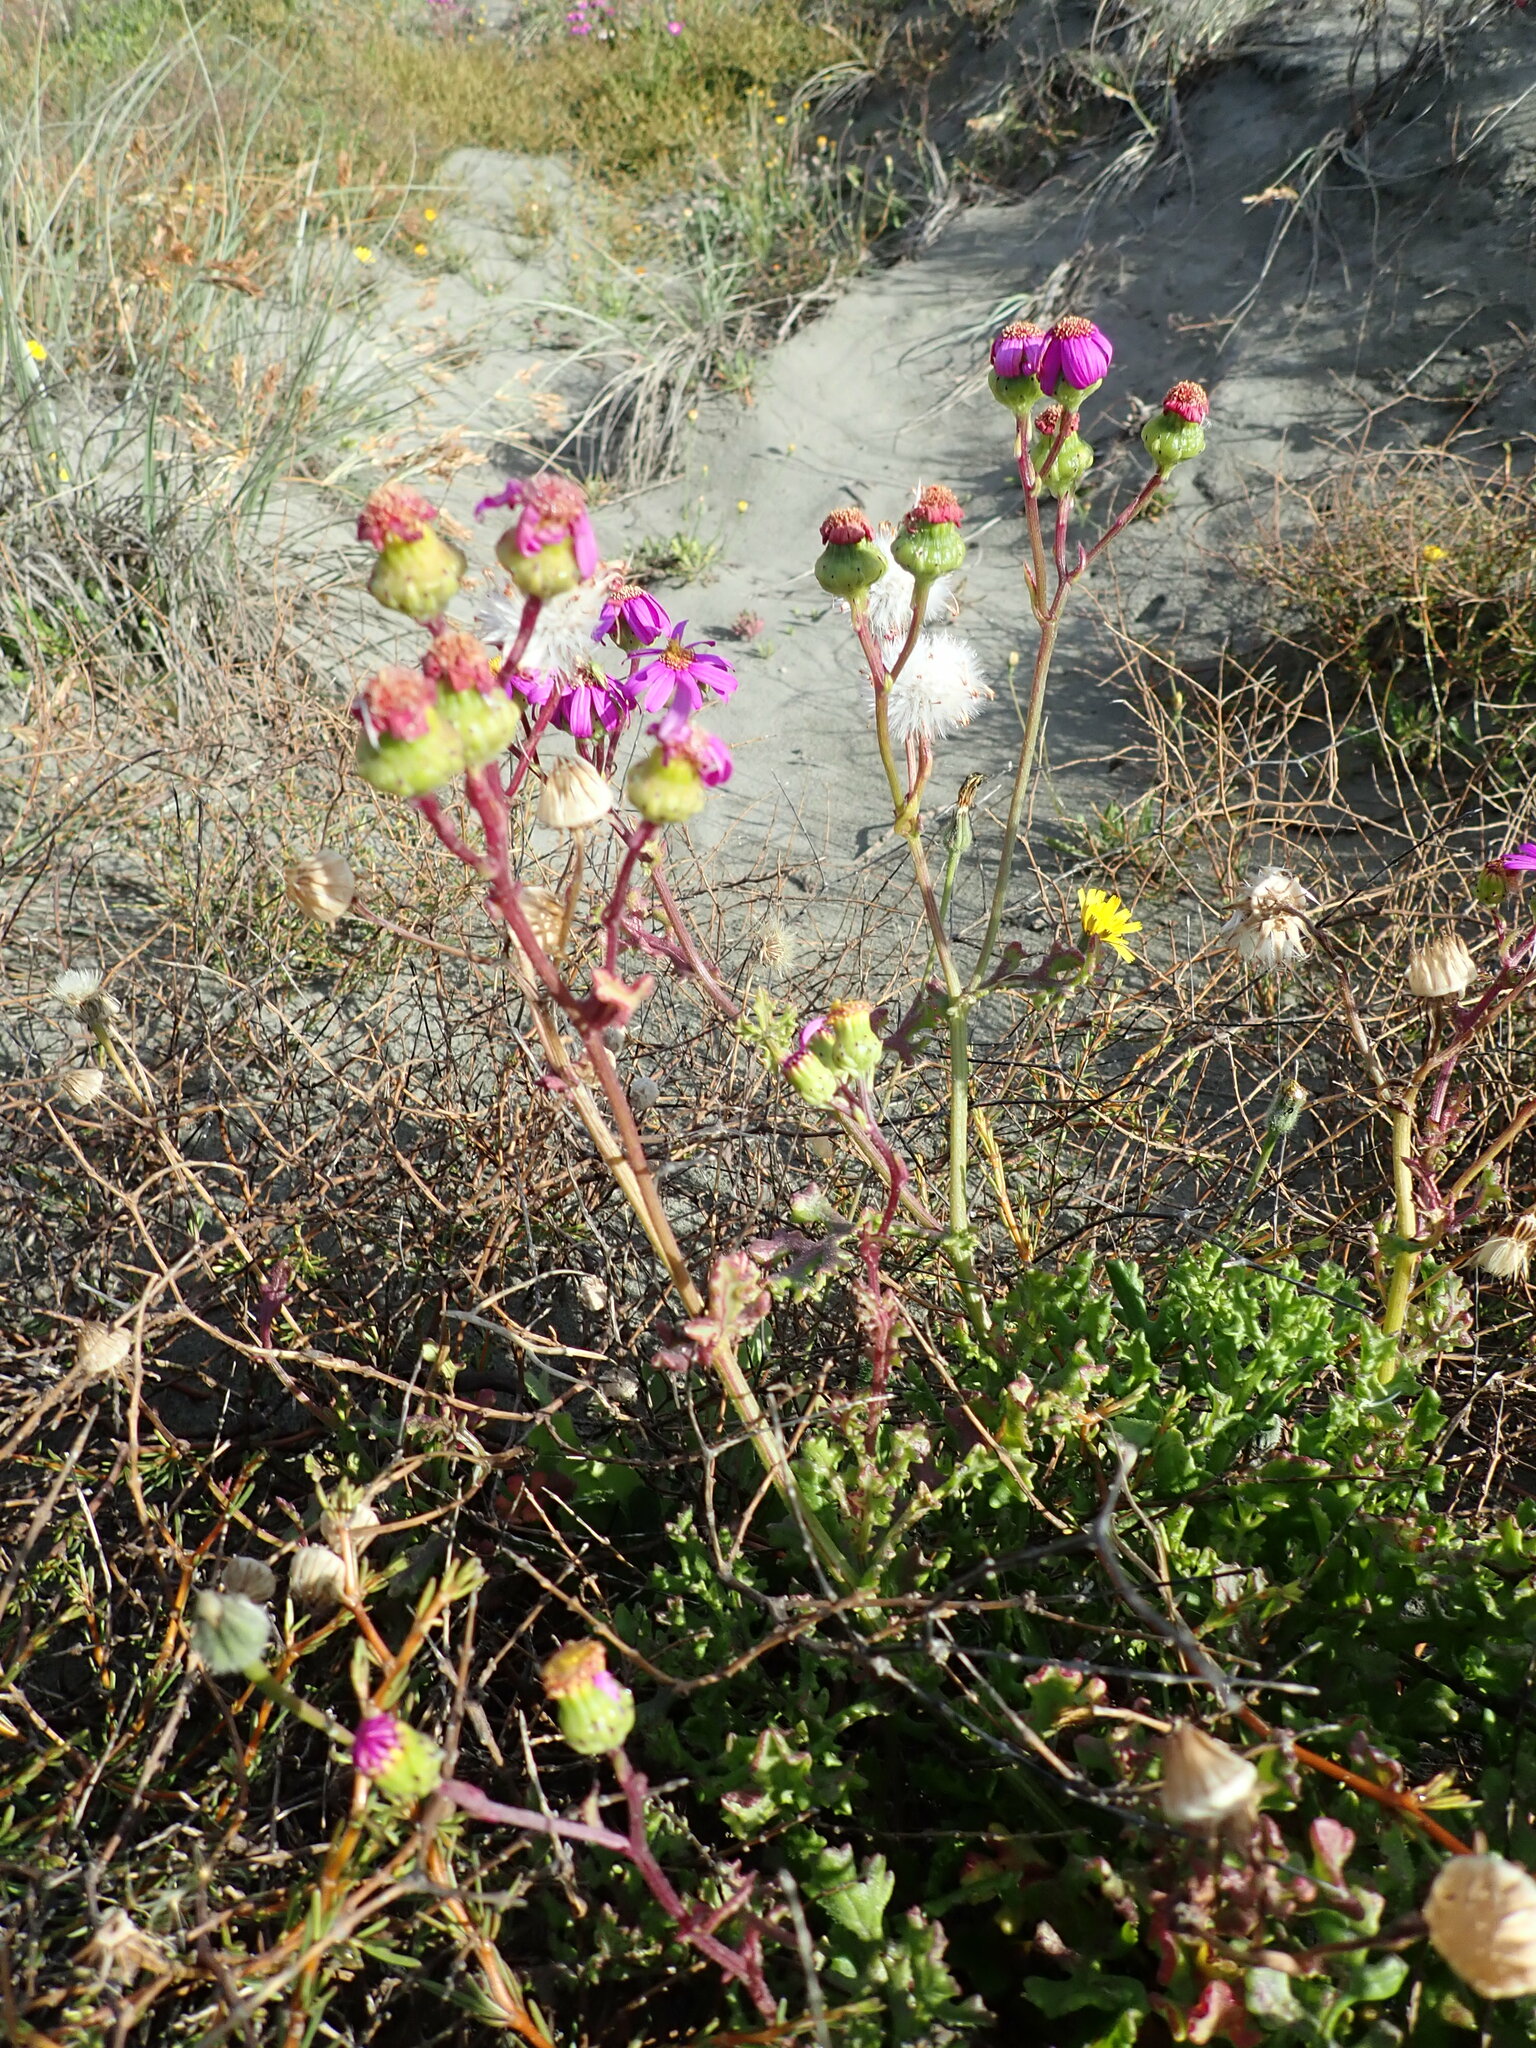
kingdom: Plantae
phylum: Tracheophyta
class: Magnoliopsida
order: Asterales
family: Asteraceae
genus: Senecio
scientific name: Senecio elegans
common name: Purple groundsel
